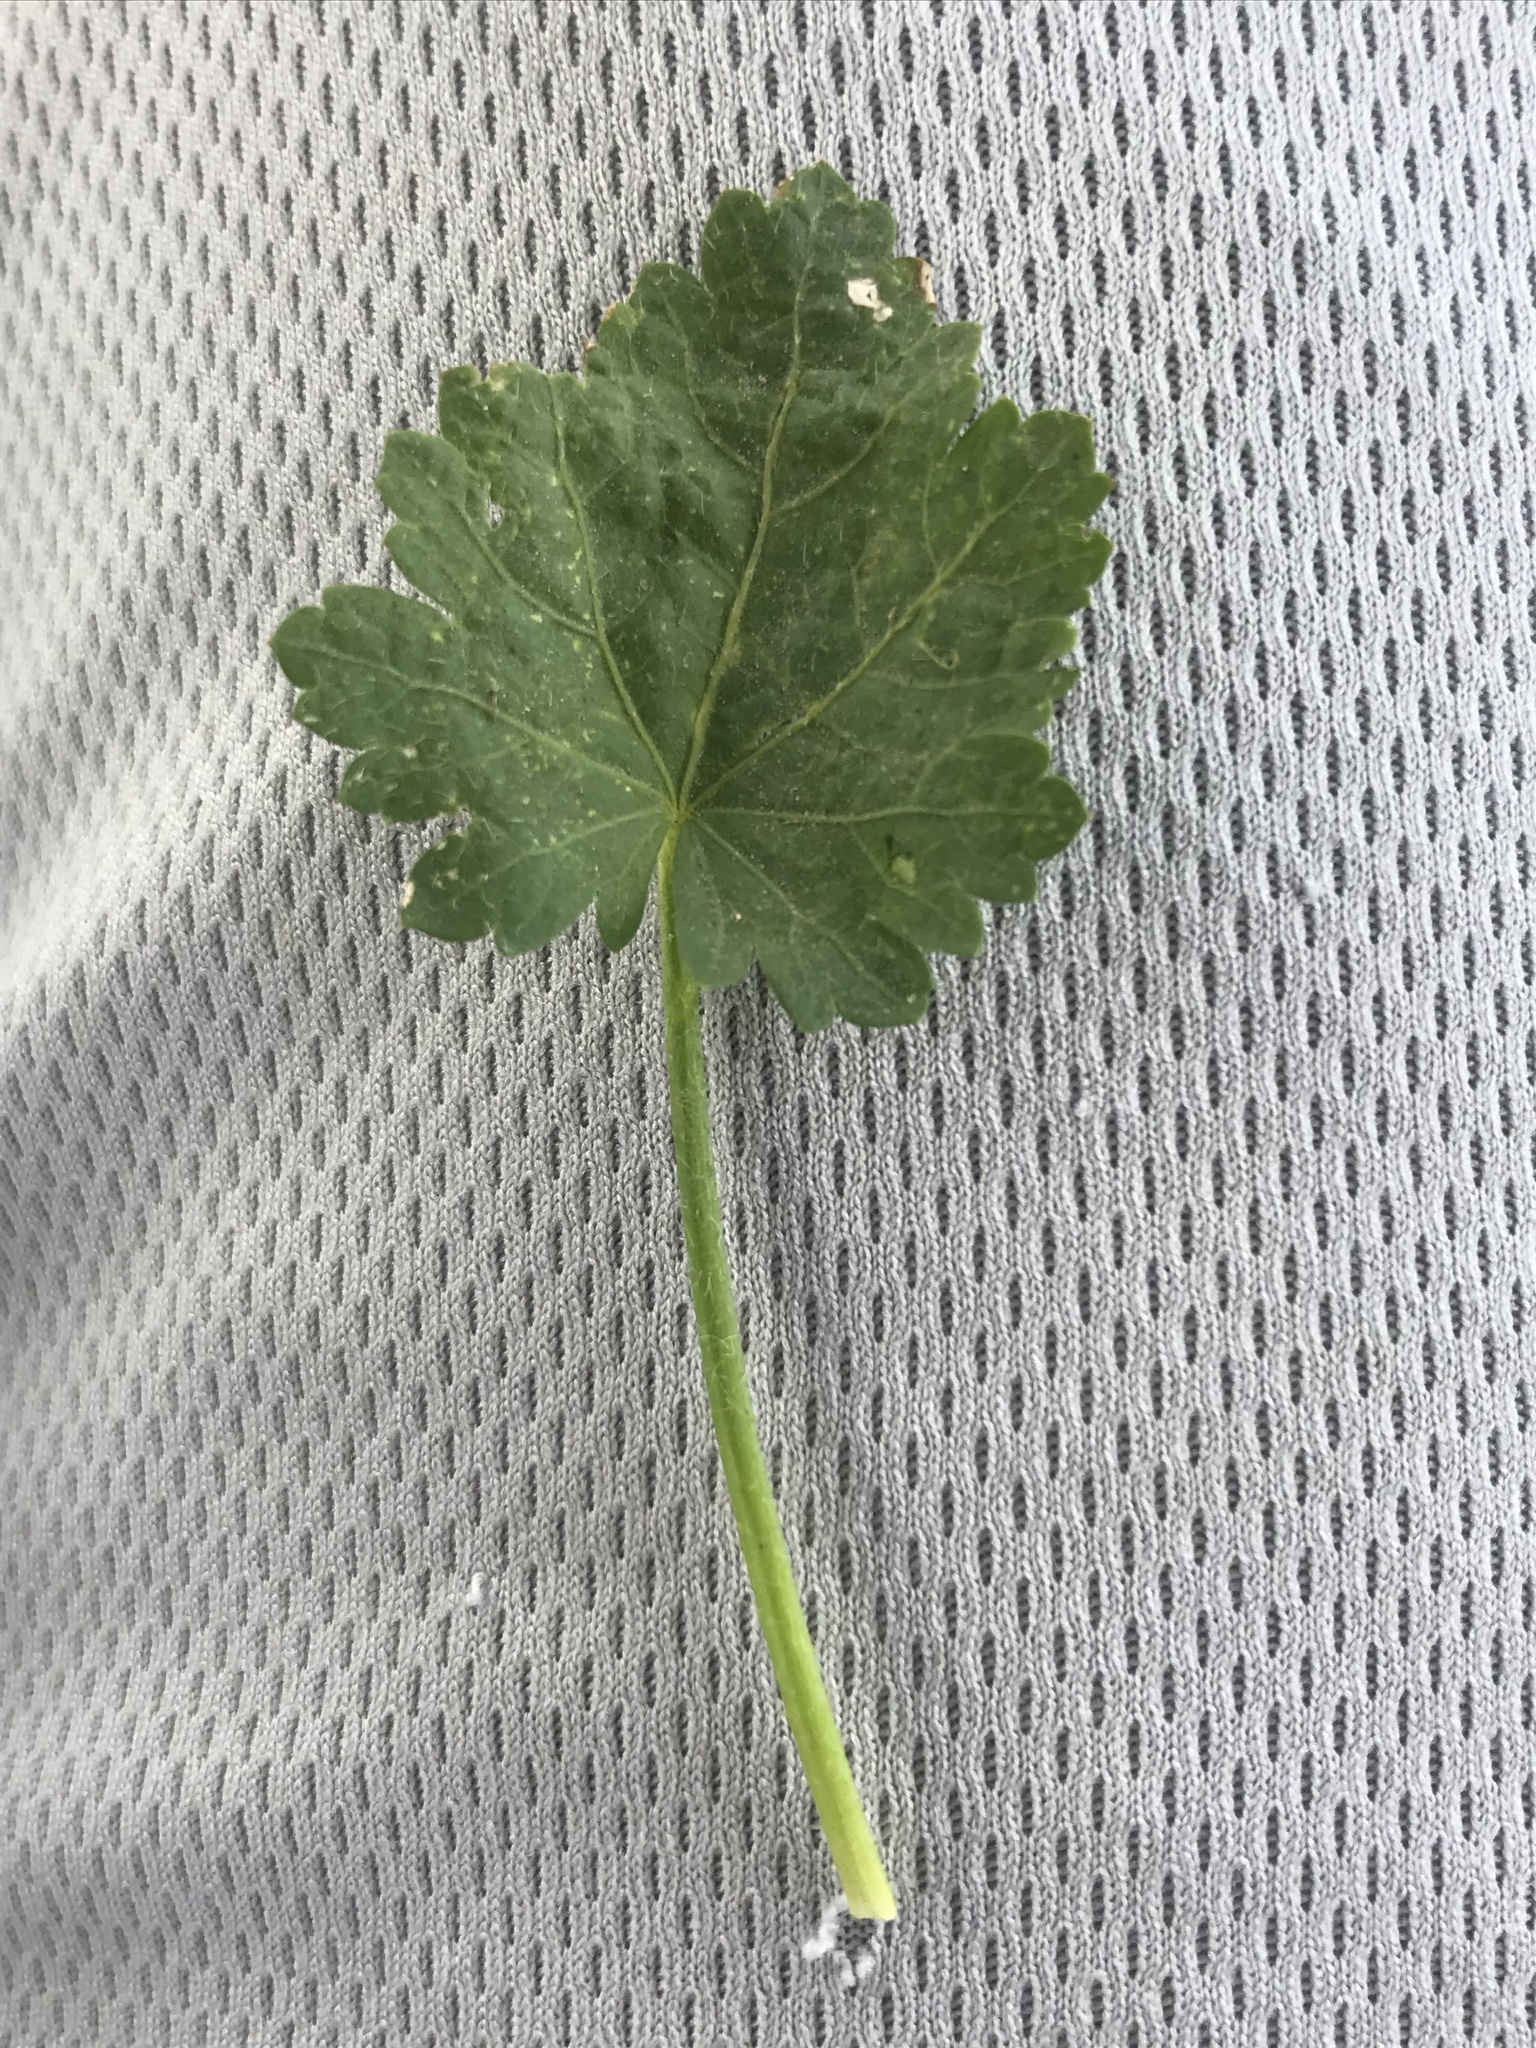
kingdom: Plantae
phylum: Tracheophyta
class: Magnoliopsida
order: Malvales
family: Malvaceae
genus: Modiola
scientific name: Modiola caroliniana
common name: Carolina bristlemallow
